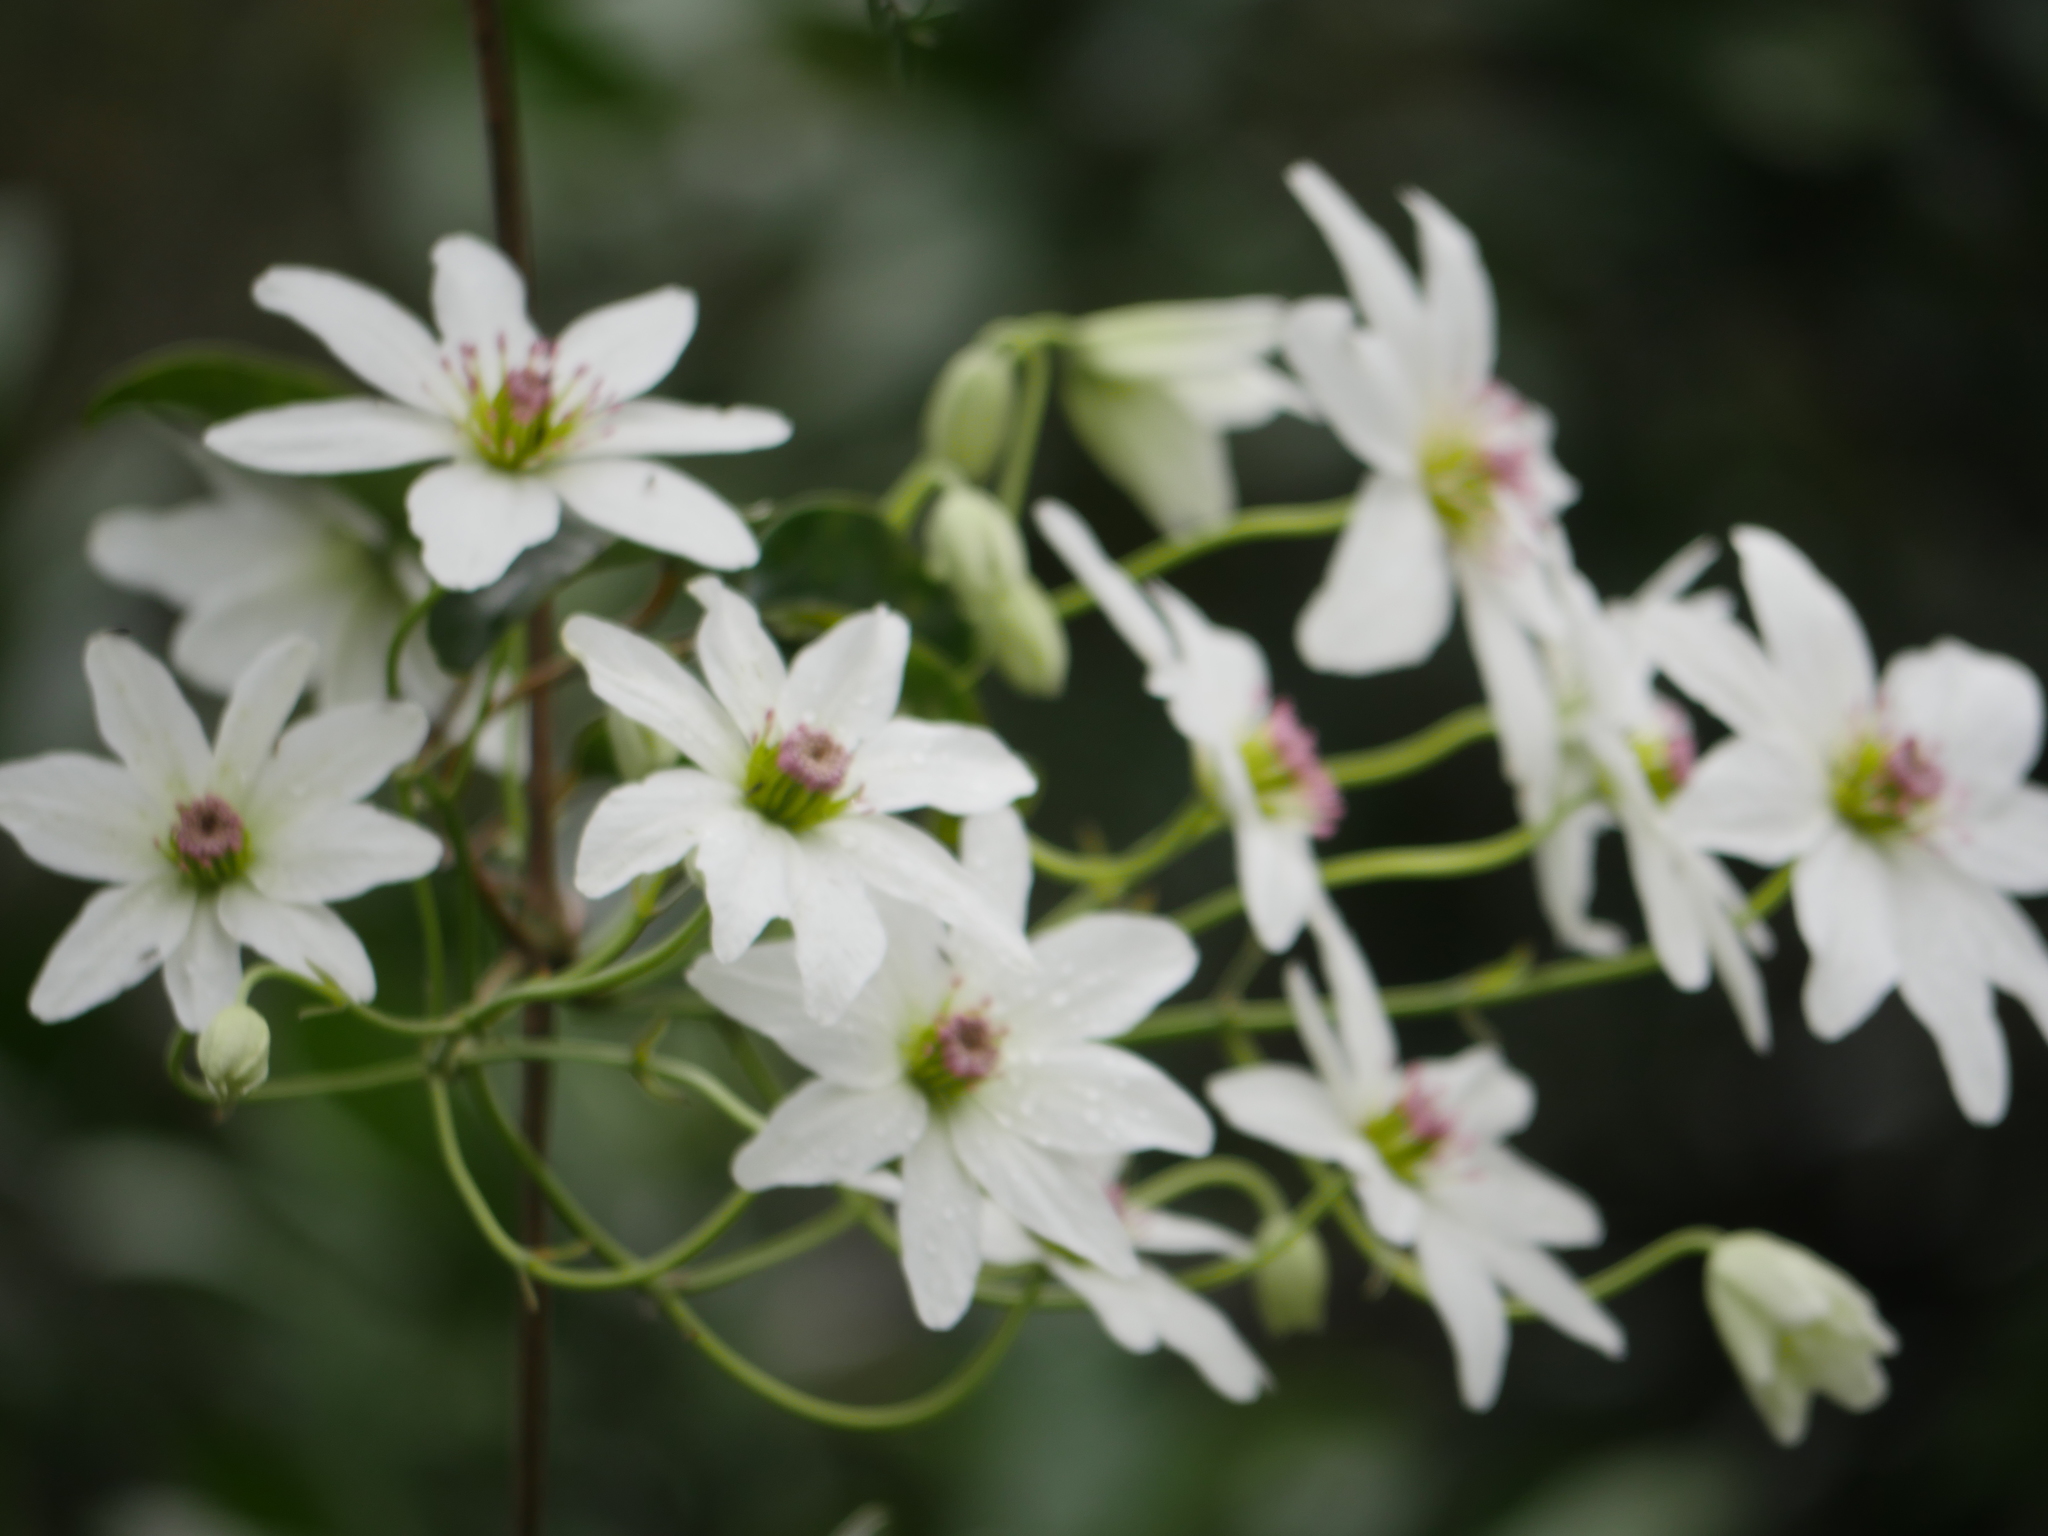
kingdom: Plantae
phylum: Tracheophyta
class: Magnoliopsida
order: Ranunculales
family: Ranunculaceae
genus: Clematis
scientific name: Clematis paniculata
